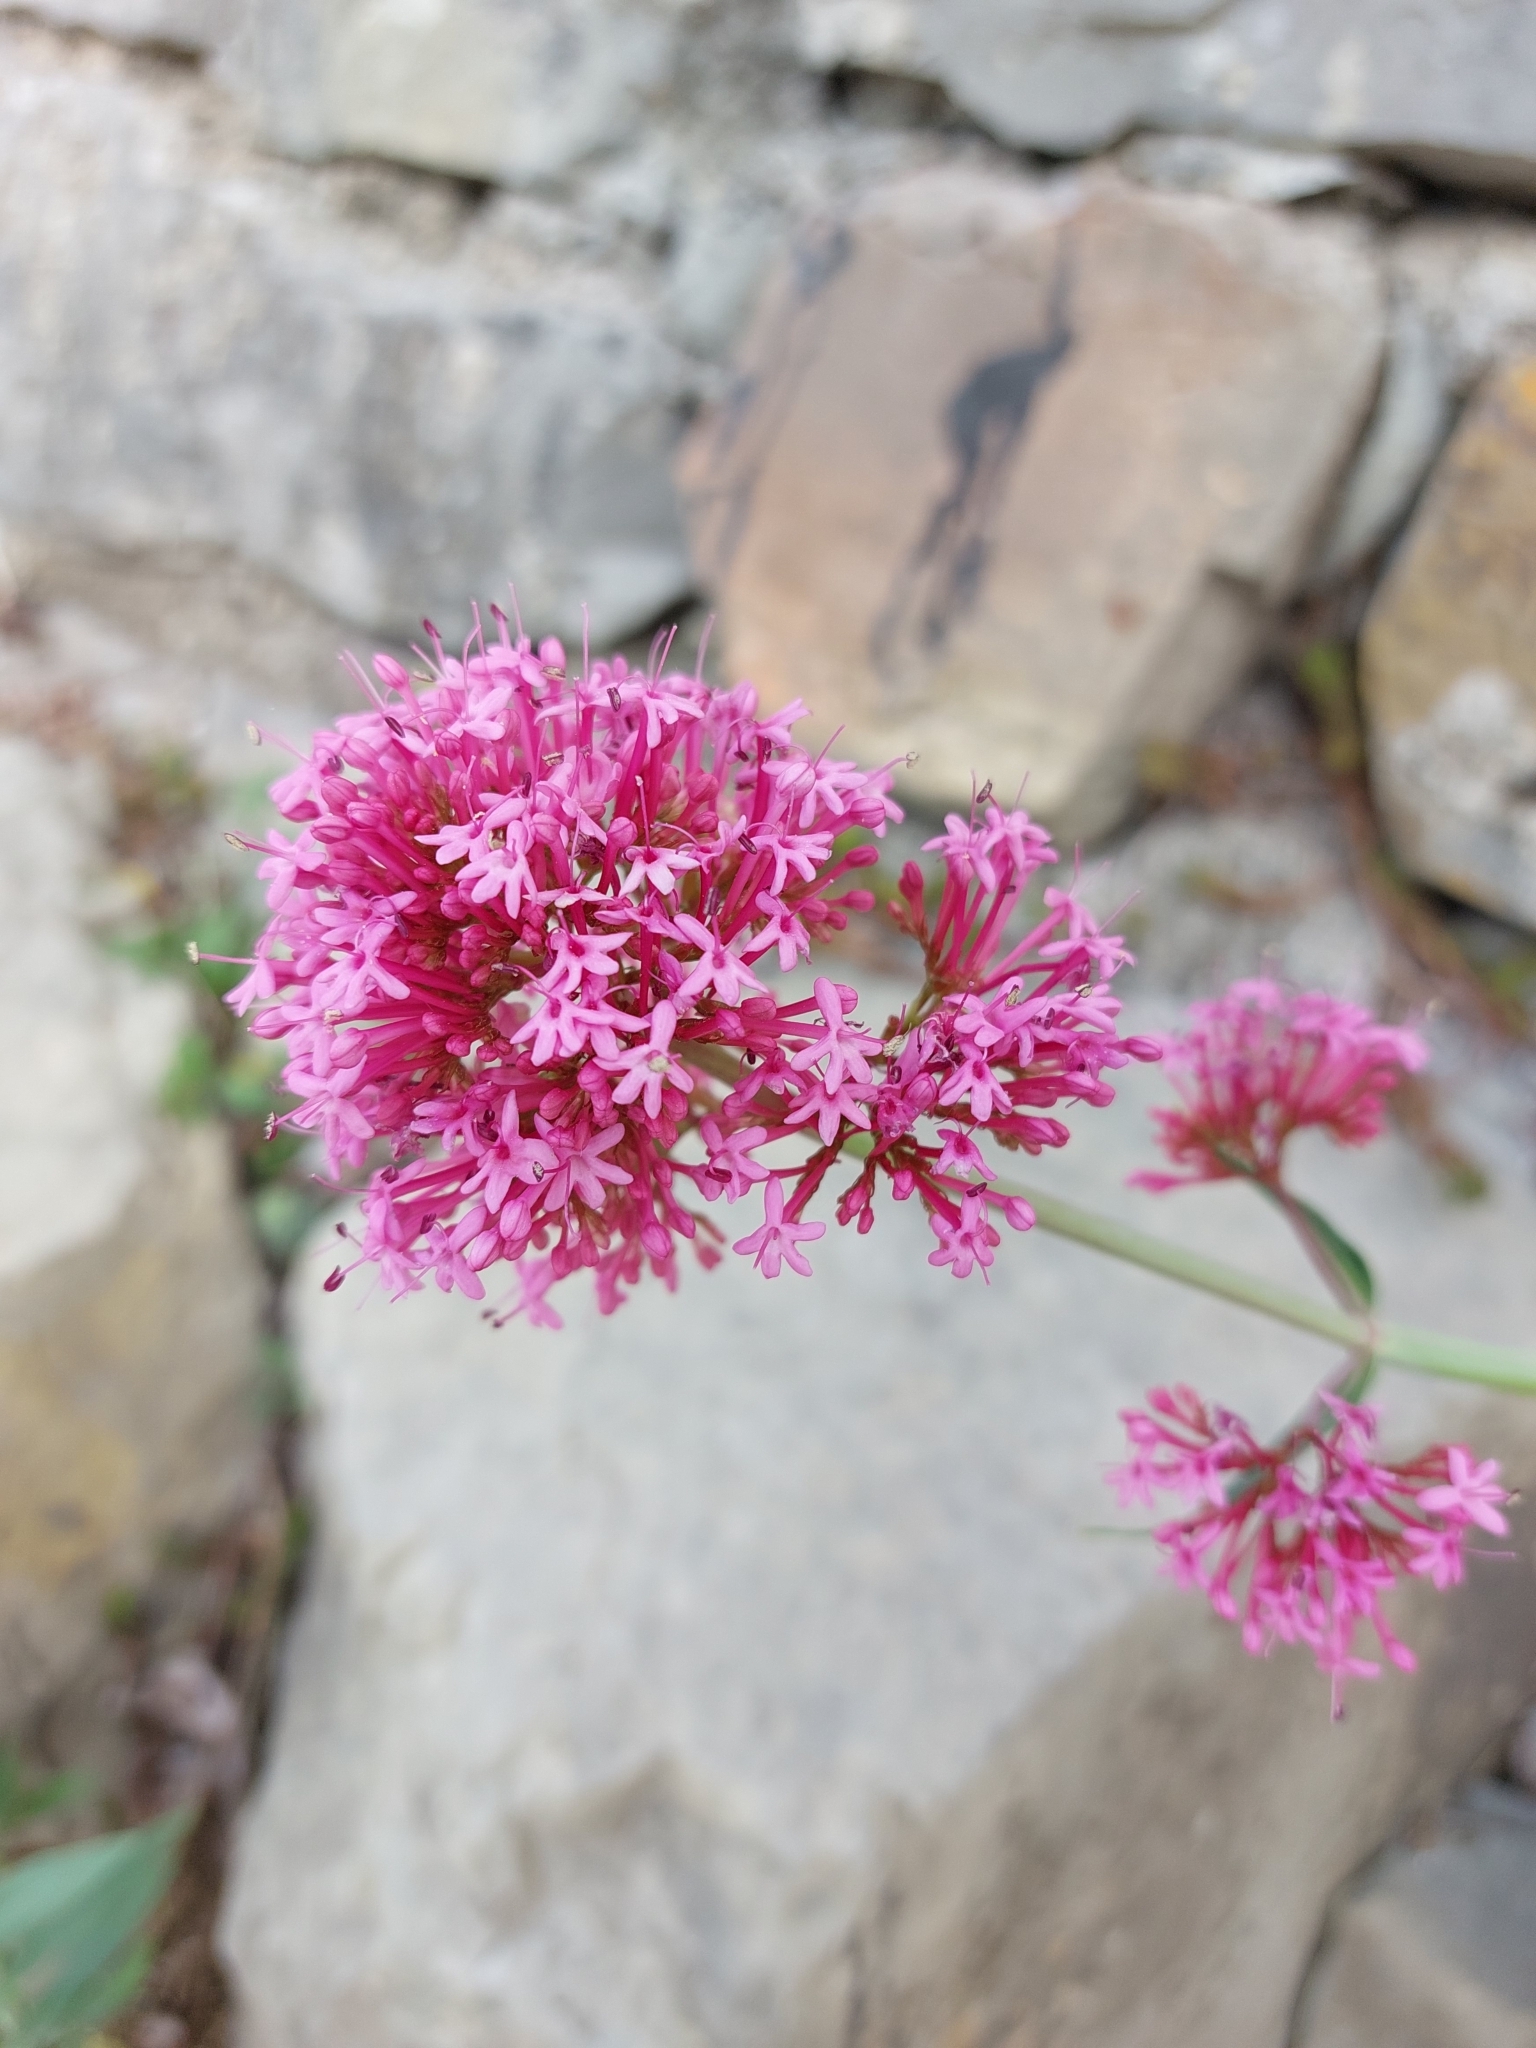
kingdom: Plantae
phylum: Tracheophyta
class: Magnoliopsida
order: Dipsacales
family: Caprifoliaceae
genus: Centranthus
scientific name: Centranthus ruber
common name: Red valerian
